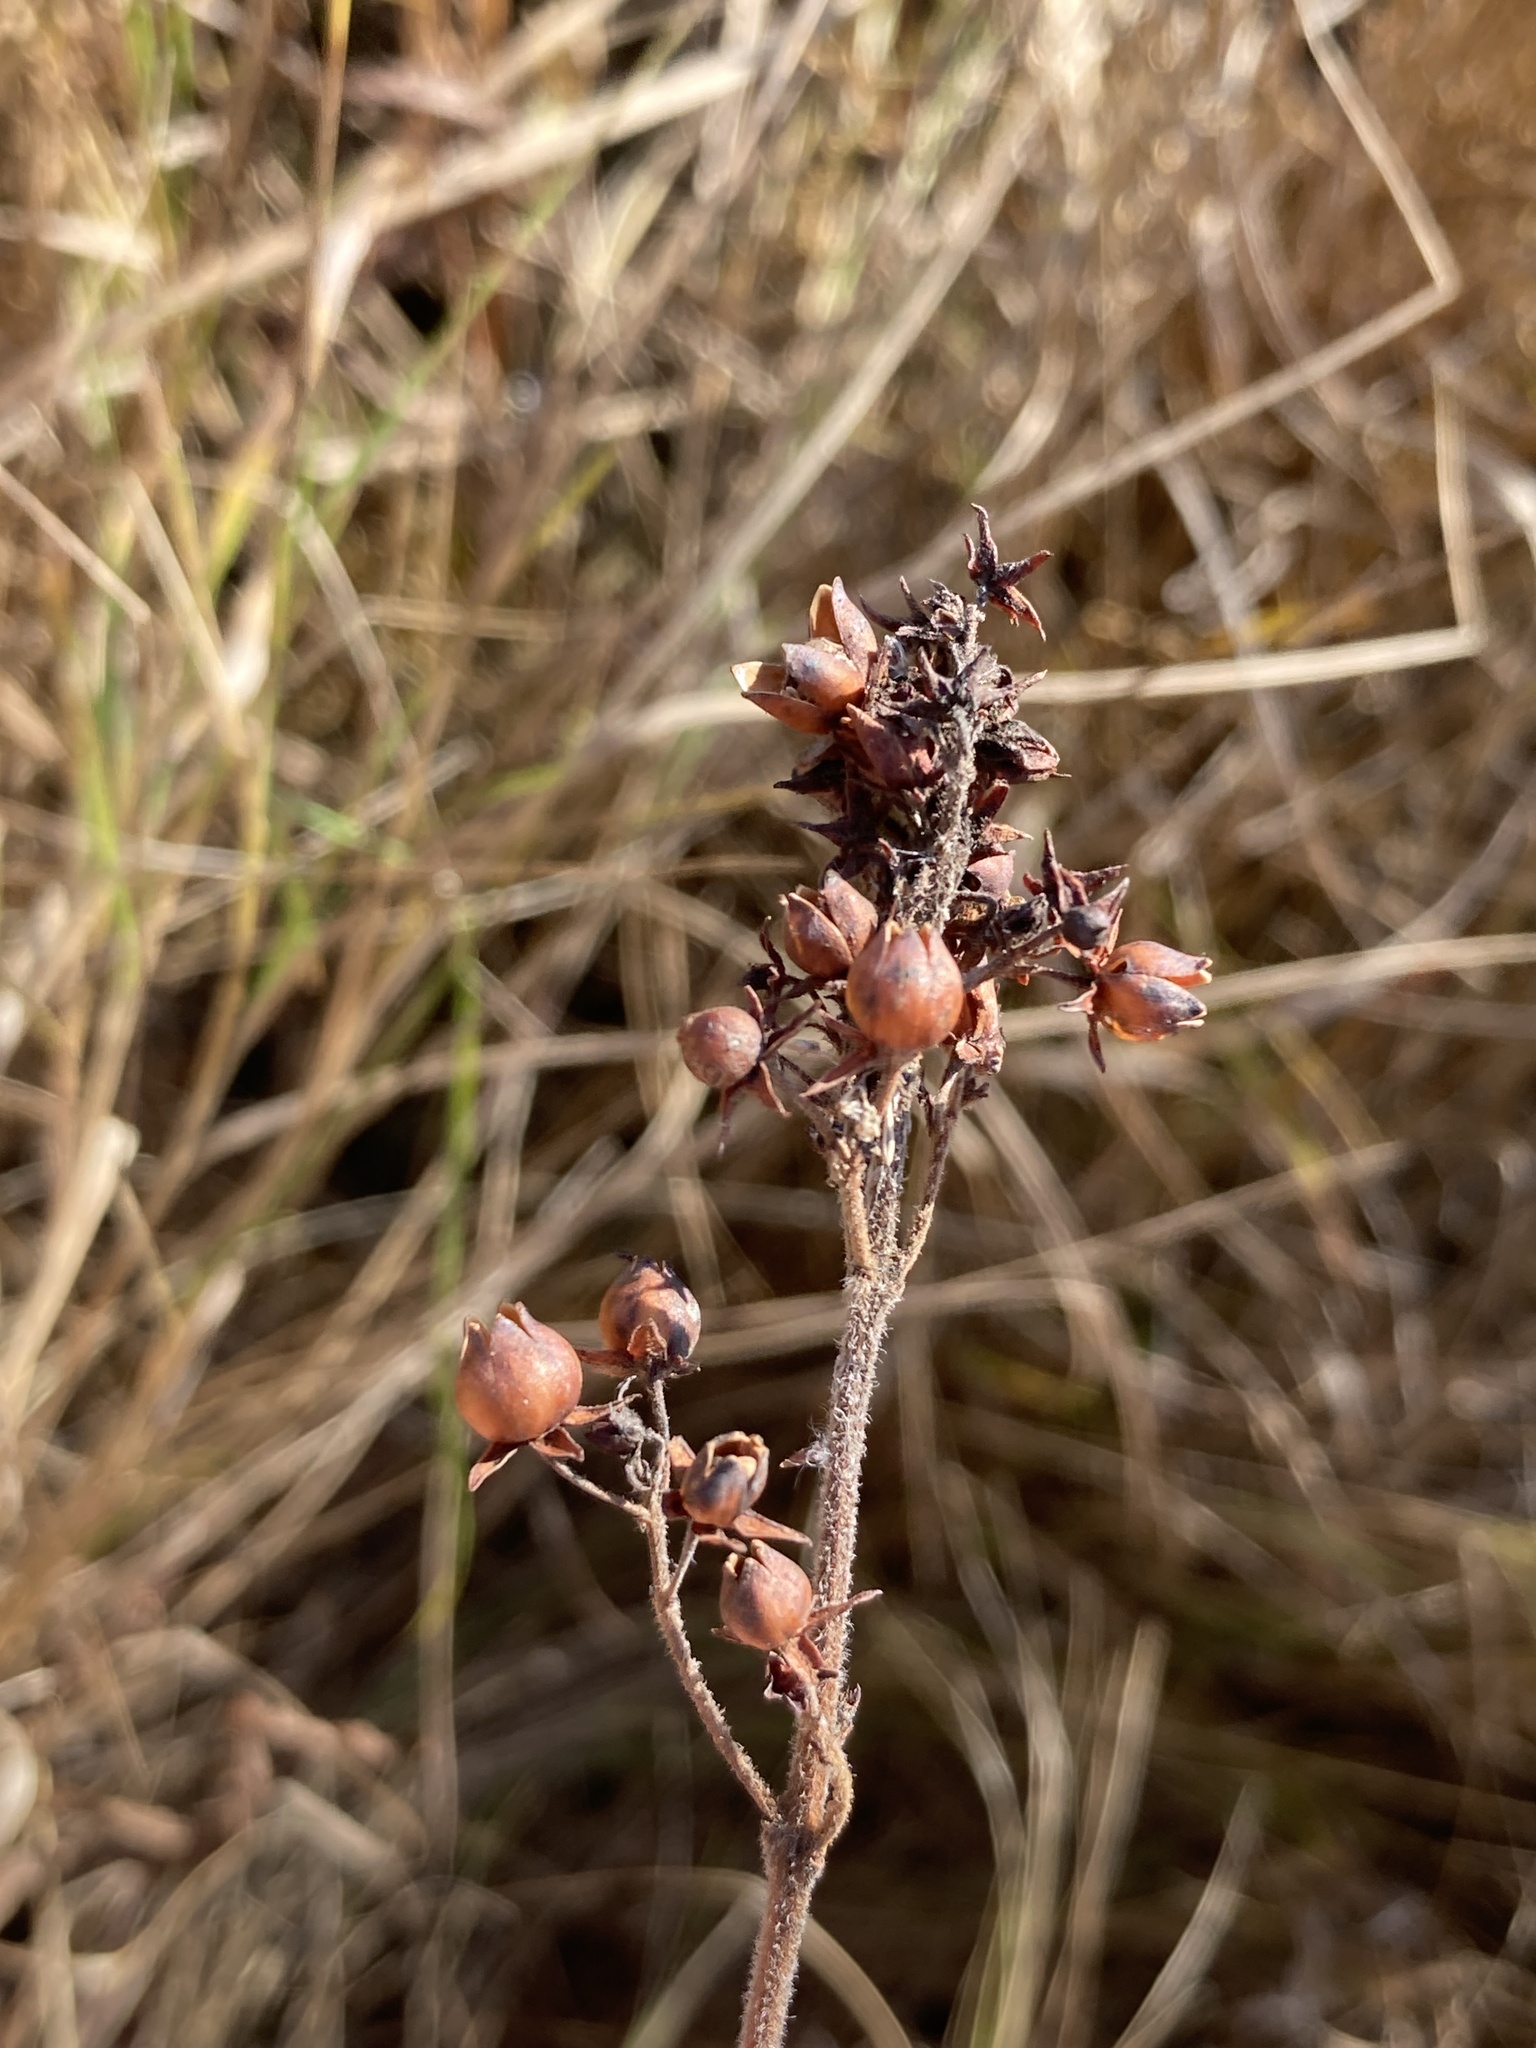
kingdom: Plantae
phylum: Tracheophyta
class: Magnoliopsida
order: Ericales
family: Primulaceae
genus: Lysimachia
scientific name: Lysimachia vulgaris
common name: Yellow loosestrife
